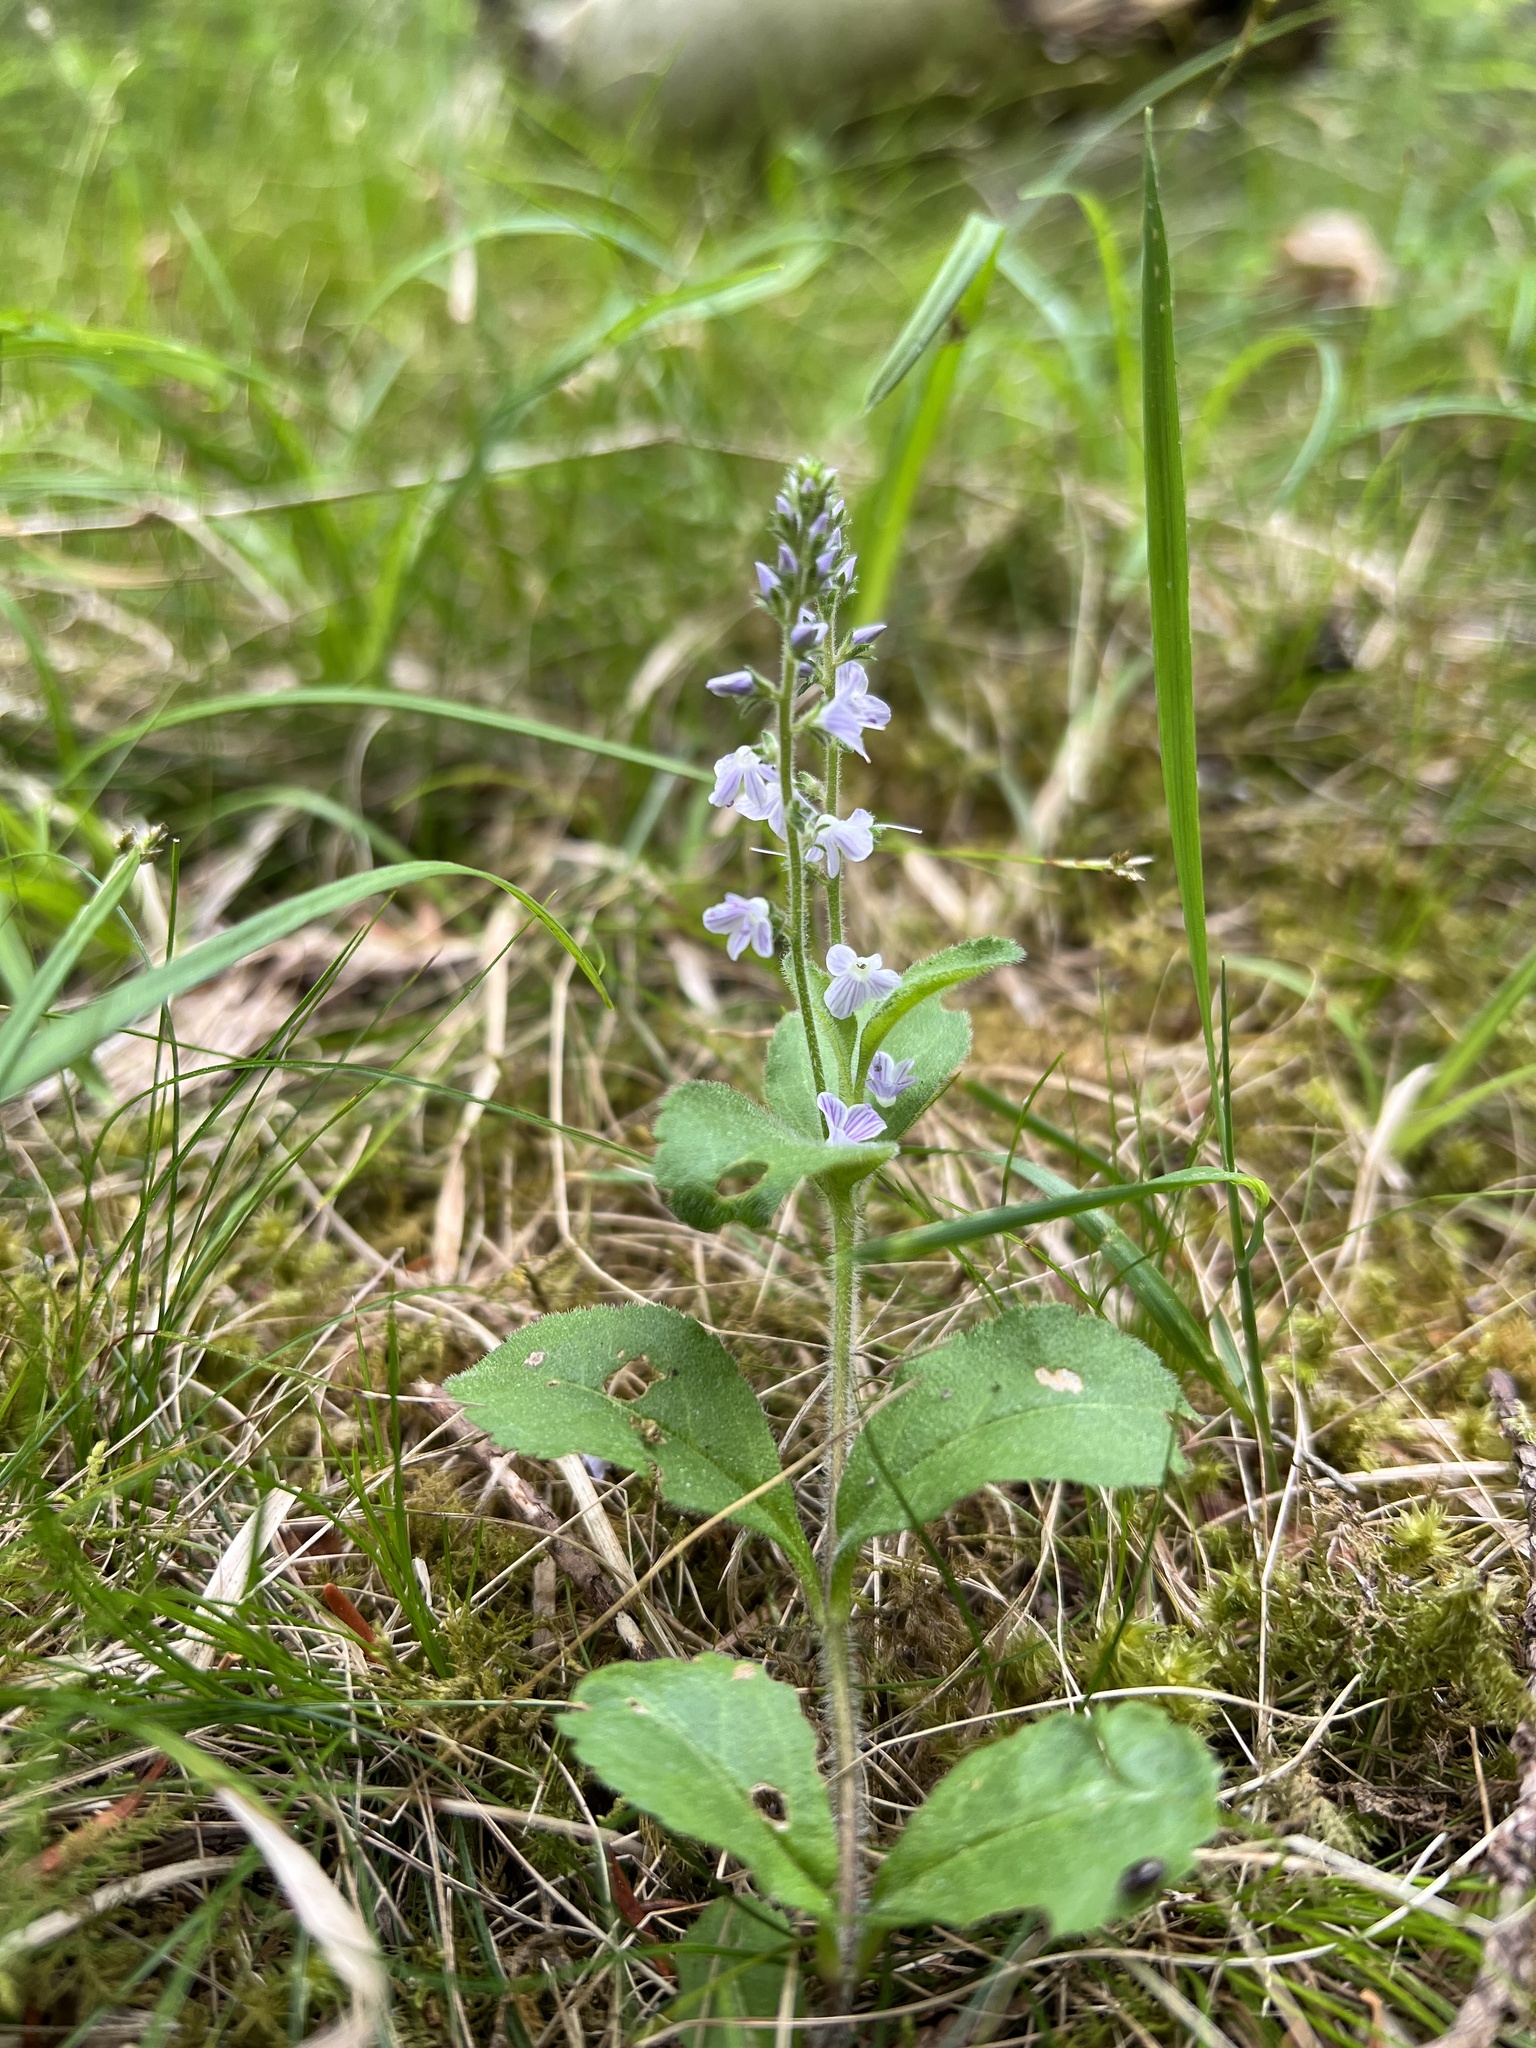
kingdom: Plantae
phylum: Tracheophyta
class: Magnoliopsida
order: Lamiales
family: Plantaginaceae
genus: Veronica
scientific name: Veronica officinalis
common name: Common speedwell
